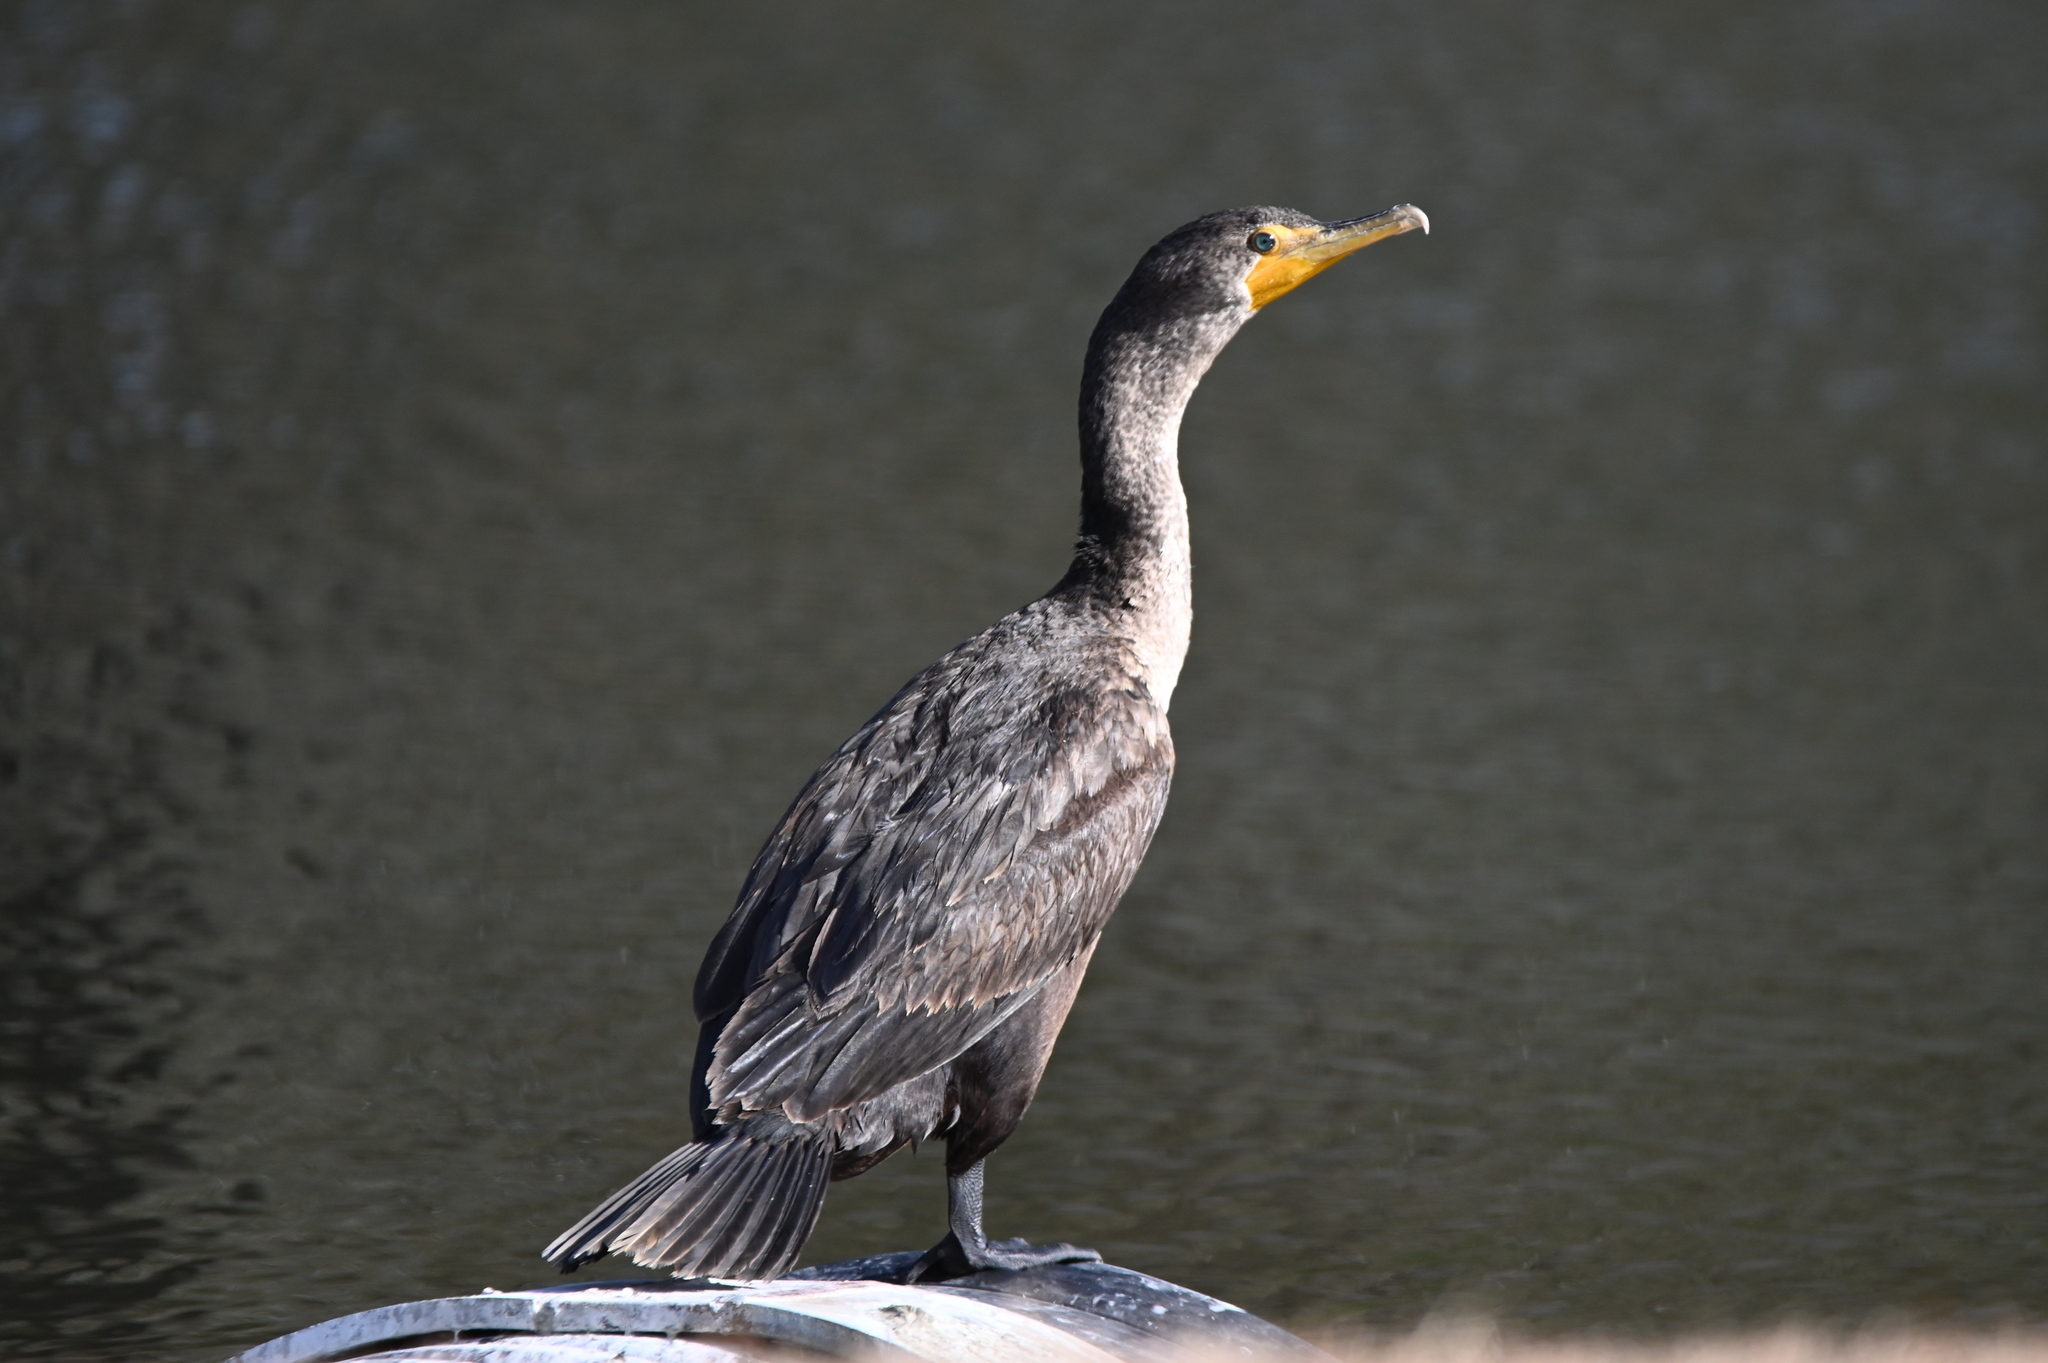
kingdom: Animalia
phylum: Chordata
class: Aves
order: Suliformes
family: Phalacrocoracidae
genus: Phalacrocorax
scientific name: Phalacrocorax auritus
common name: Double-crested cormorant
